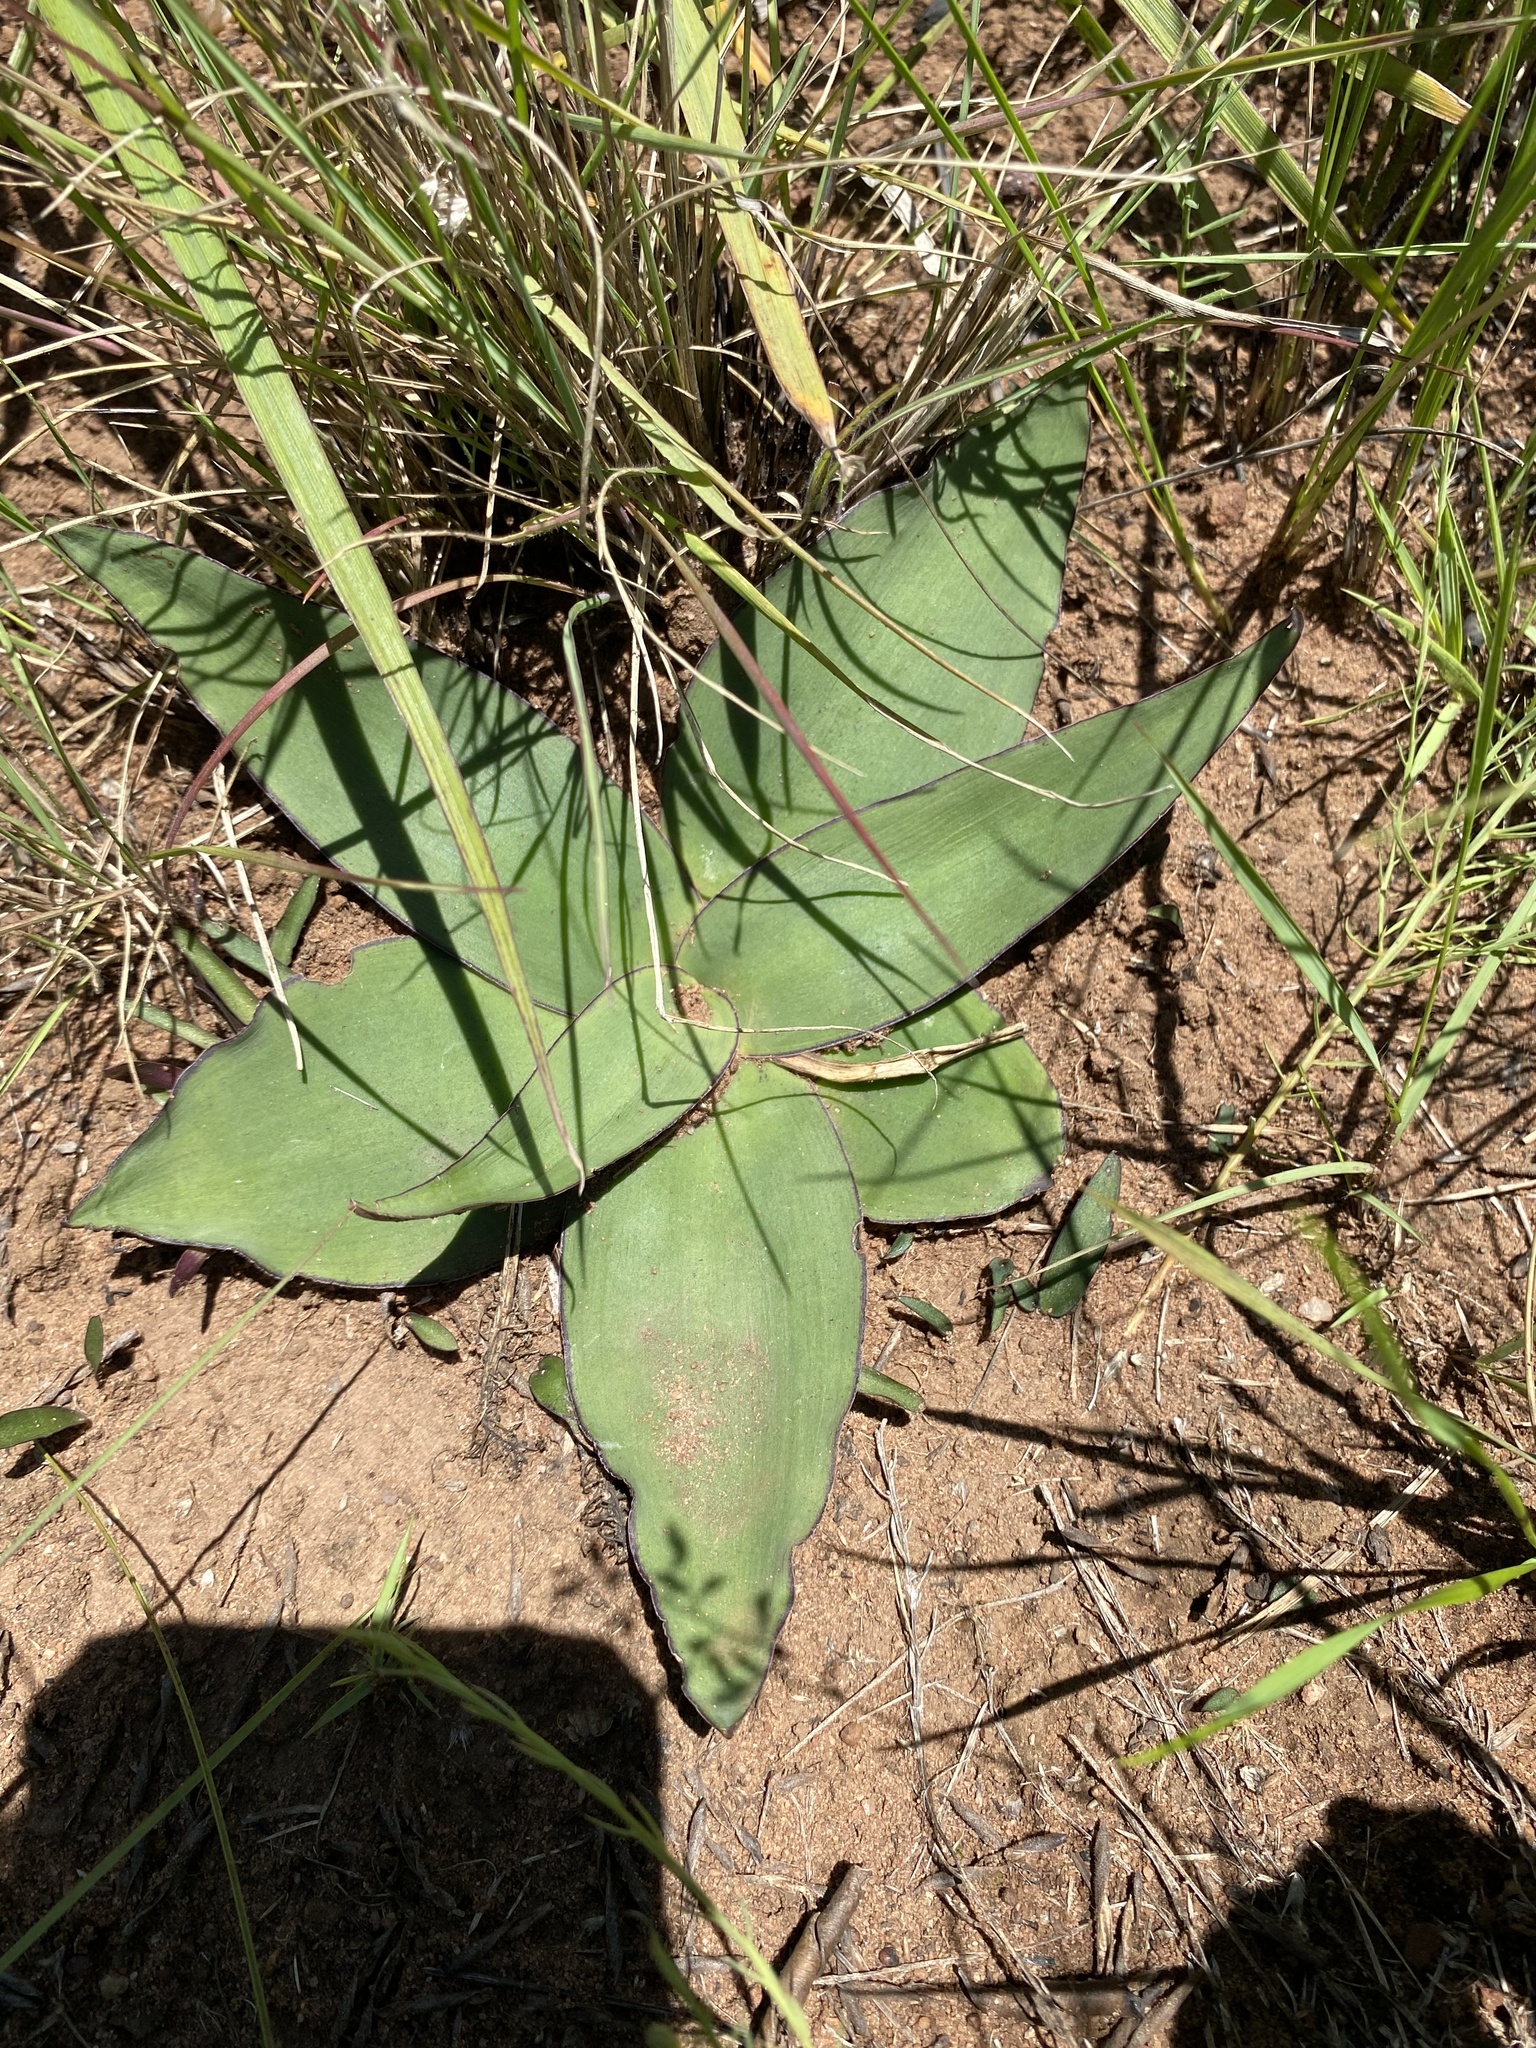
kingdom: Plantae
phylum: Tracheophyta
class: Liliopsida
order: Asparagales
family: Asparagaceae
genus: Ledebouria
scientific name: Ledebouria ovatifolia
